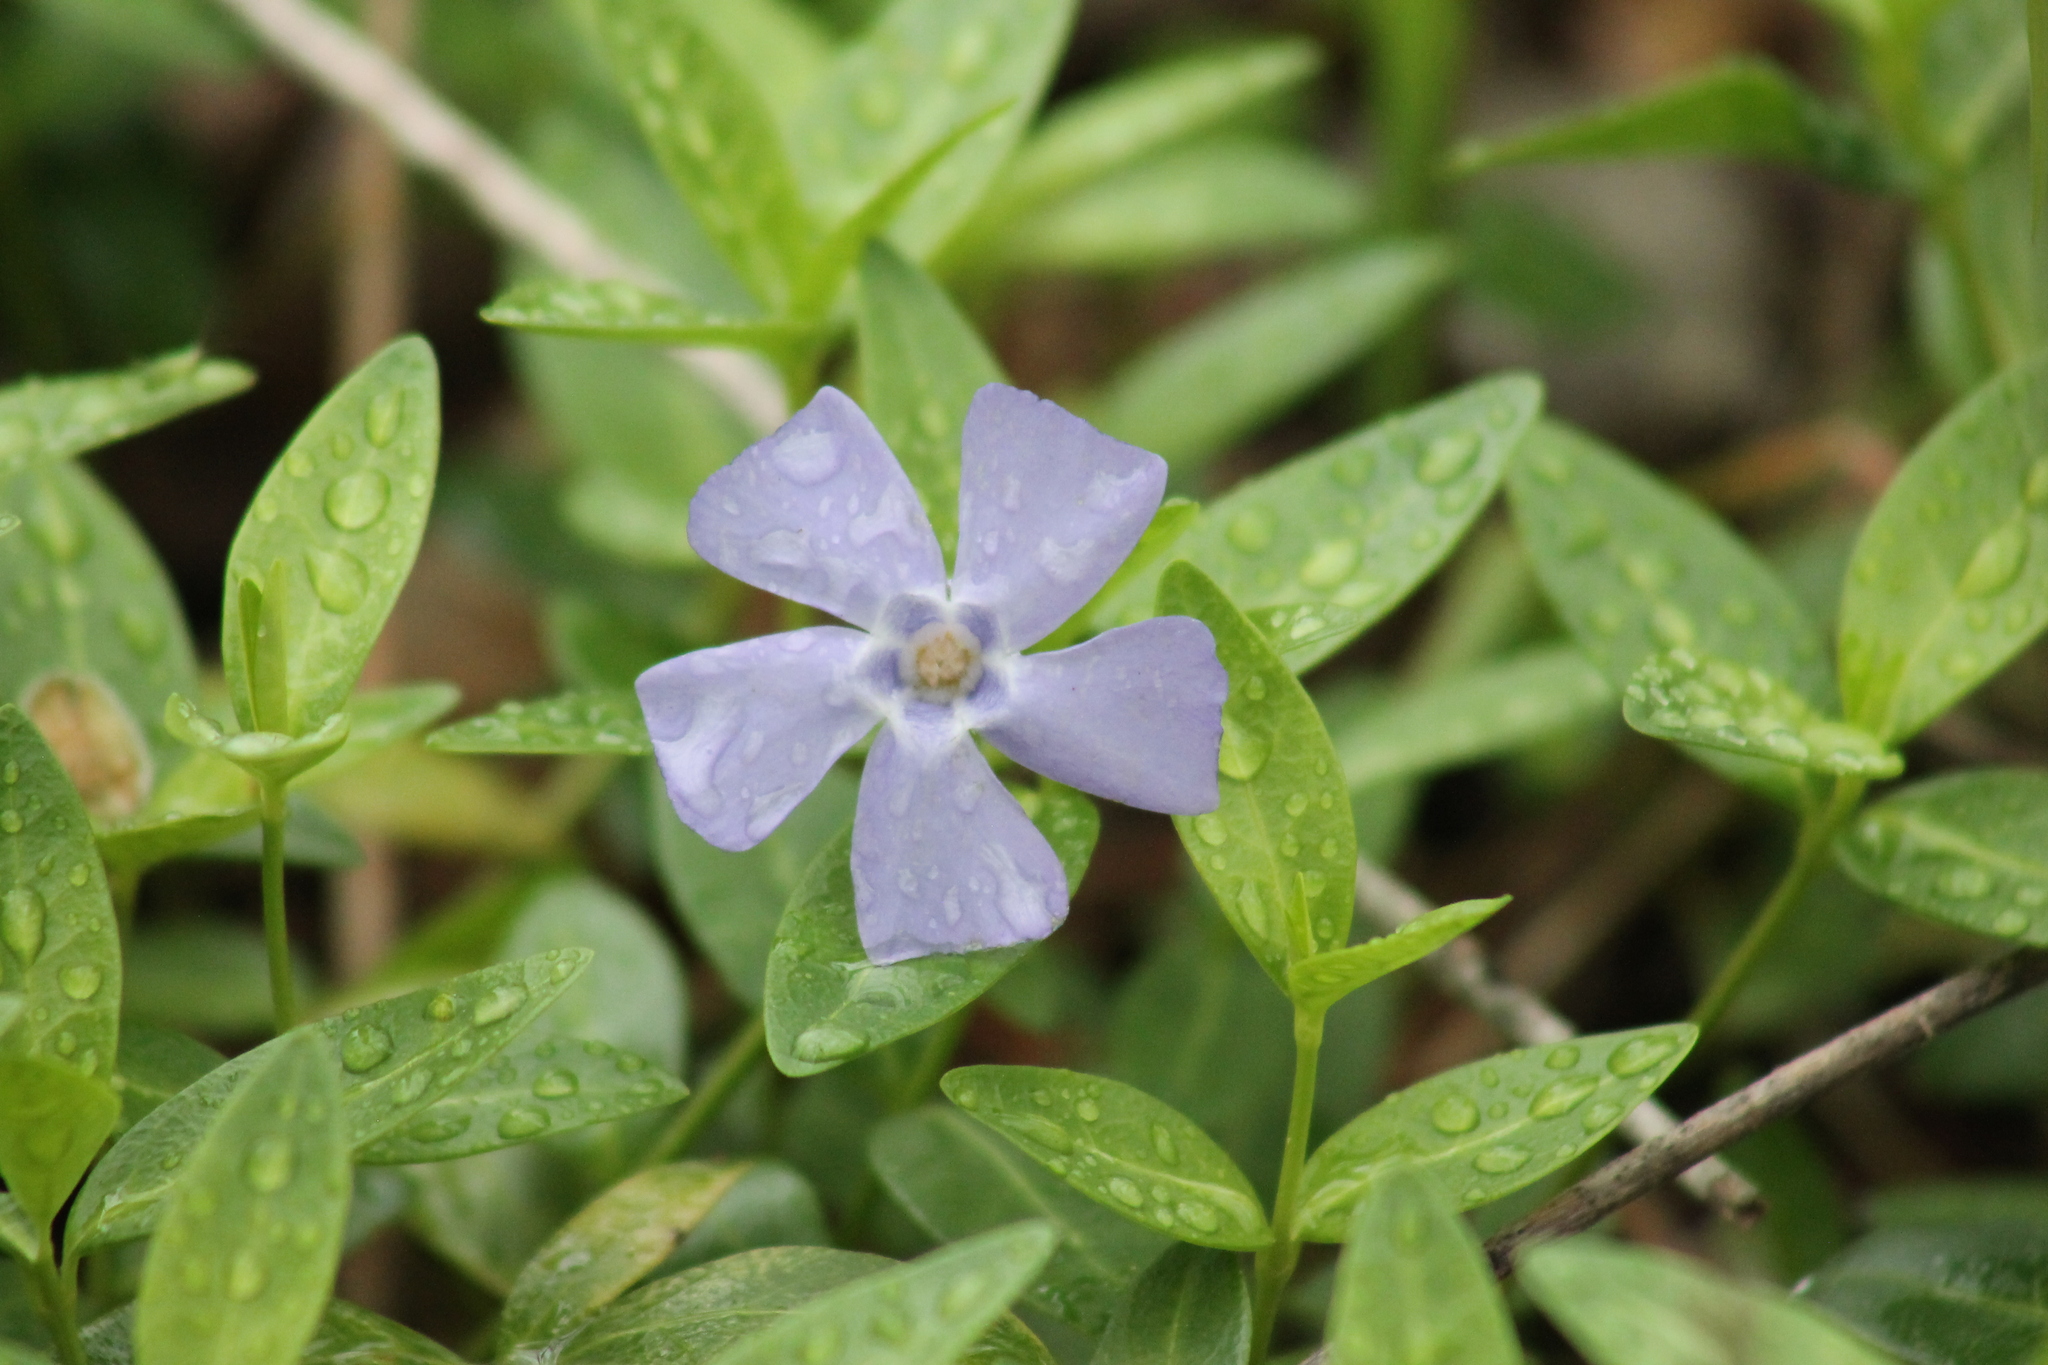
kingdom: Plantae
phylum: Tracheophyta
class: Magnoliopsida
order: Gentianales
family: Apocynaceae
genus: Vinca
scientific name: Vinca minor
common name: Lesser periwinkle
